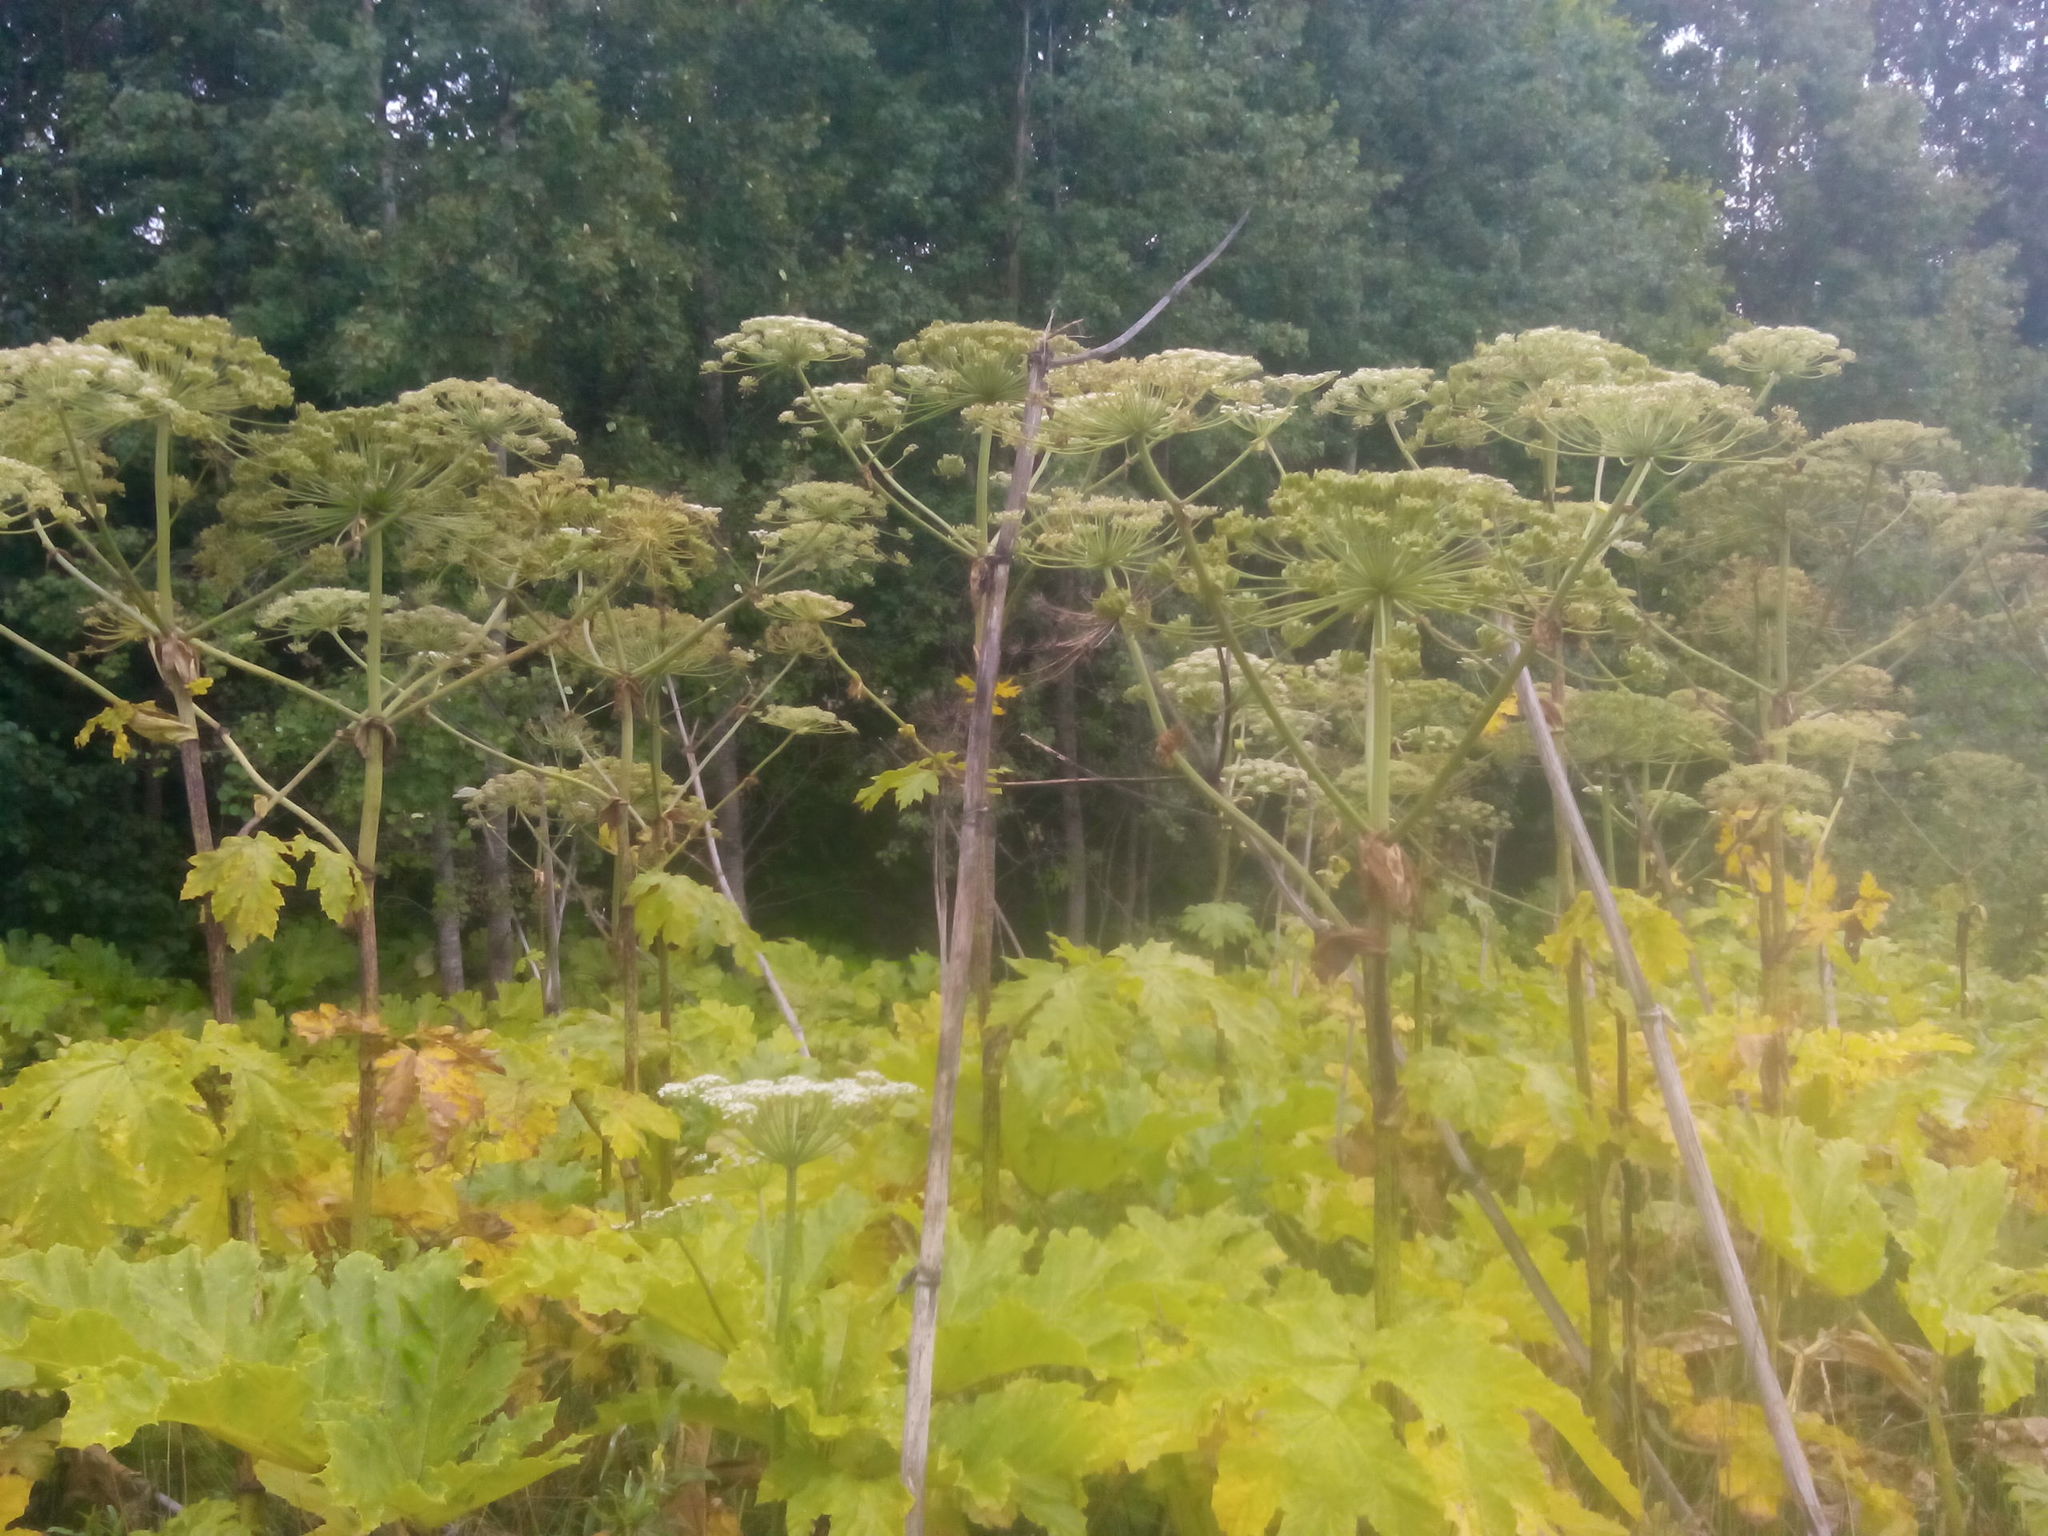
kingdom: Plantae
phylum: Tracheophyta
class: Magnoliopsida
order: Apiales
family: Apiaceae
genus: Heracleum
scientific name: Heracleum sosnowskyi
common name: Sosnowsky's hogweed
